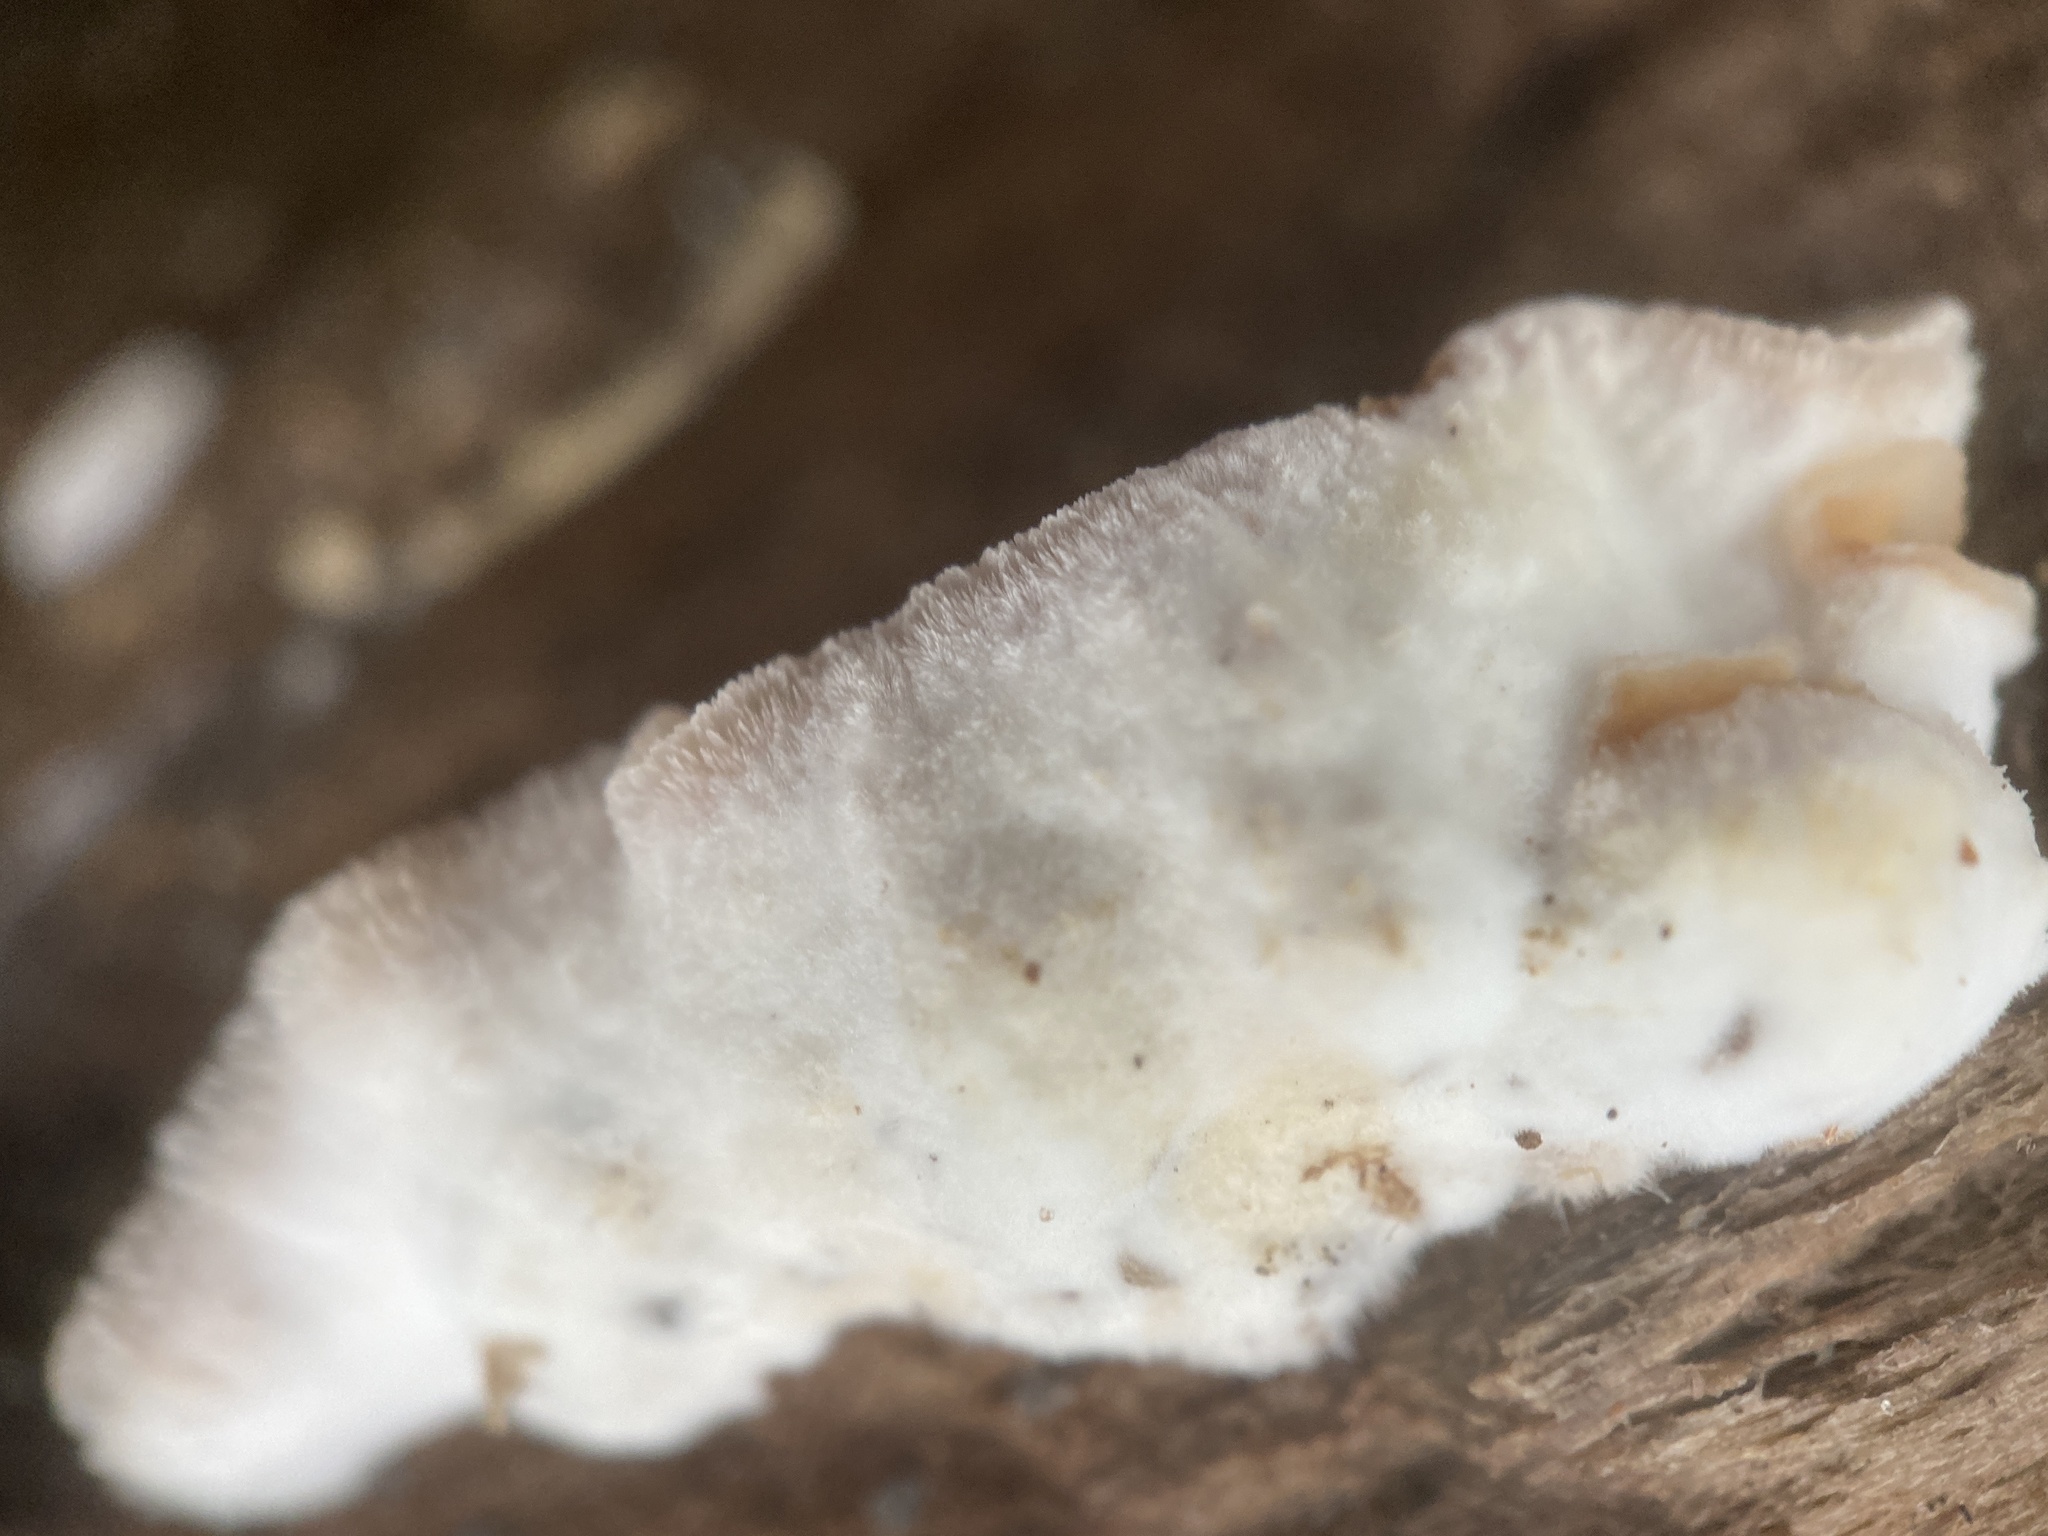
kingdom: Fungi
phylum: Basidiomycota
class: Agaricomycetes
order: Polyporales
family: Meruliaceae
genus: Phlebia
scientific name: Phlebia tremellosa
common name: Jelly rot
